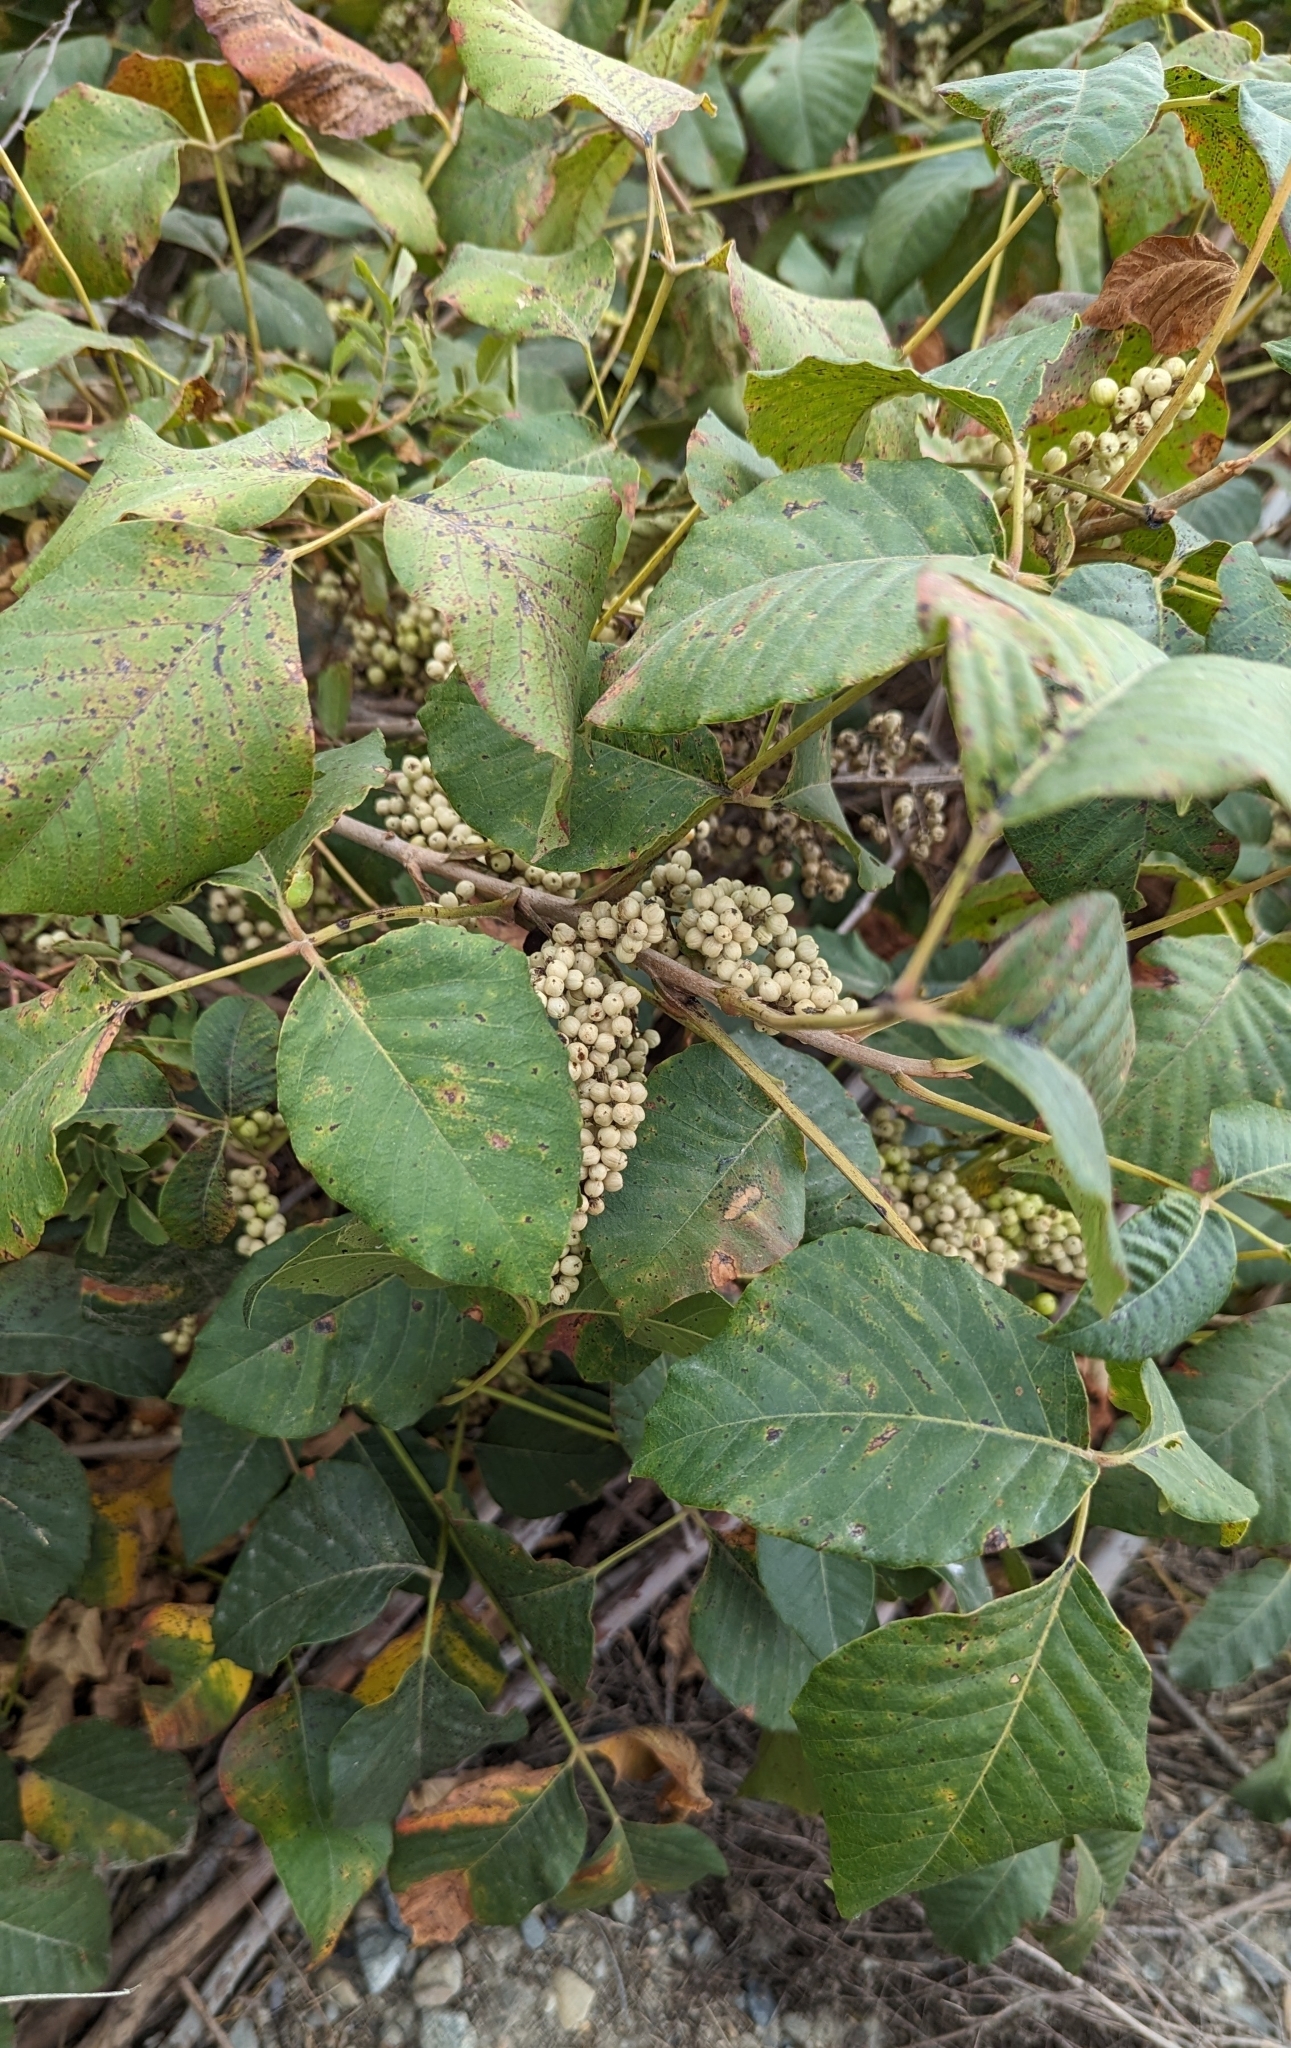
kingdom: Plantae
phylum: Tracheophyta
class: Magnoliopsida
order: Sapindales
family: Anacardiaceae
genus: Toxicodendron
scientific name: Toxicodendron rydbergii
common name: Rydberg's poison-ivy
